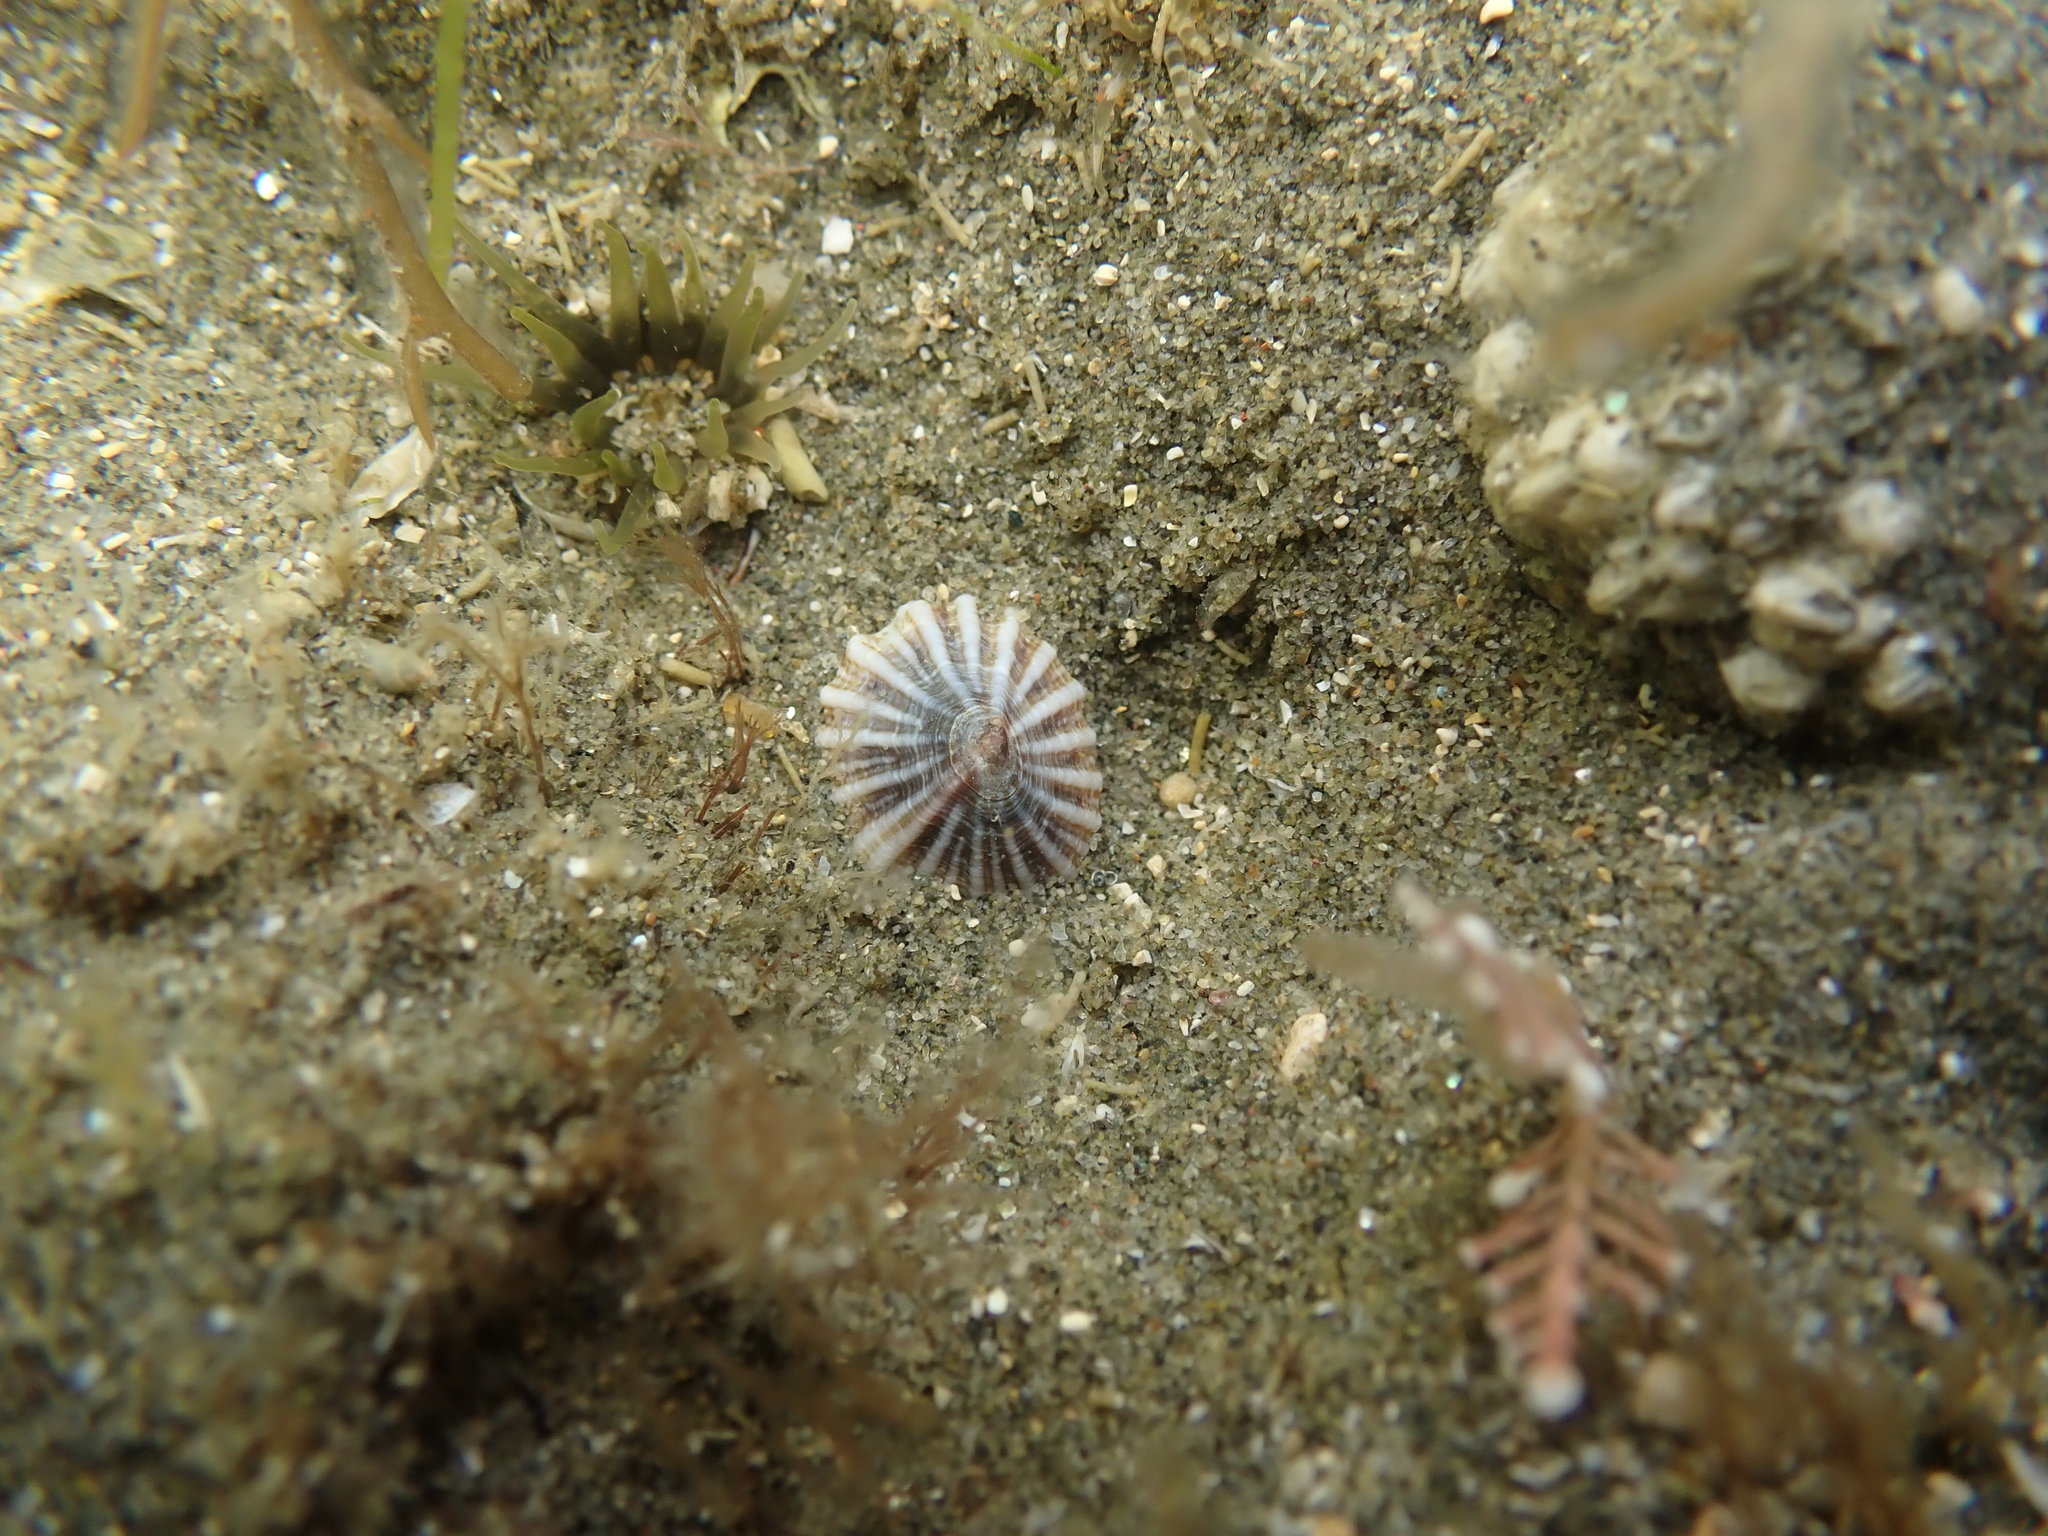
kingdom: Animalia
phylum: Mollusca
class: Gastropoda
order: Siphonariida
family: Siphonariidae
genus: Siphonaria
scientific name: Siphonaria propria
